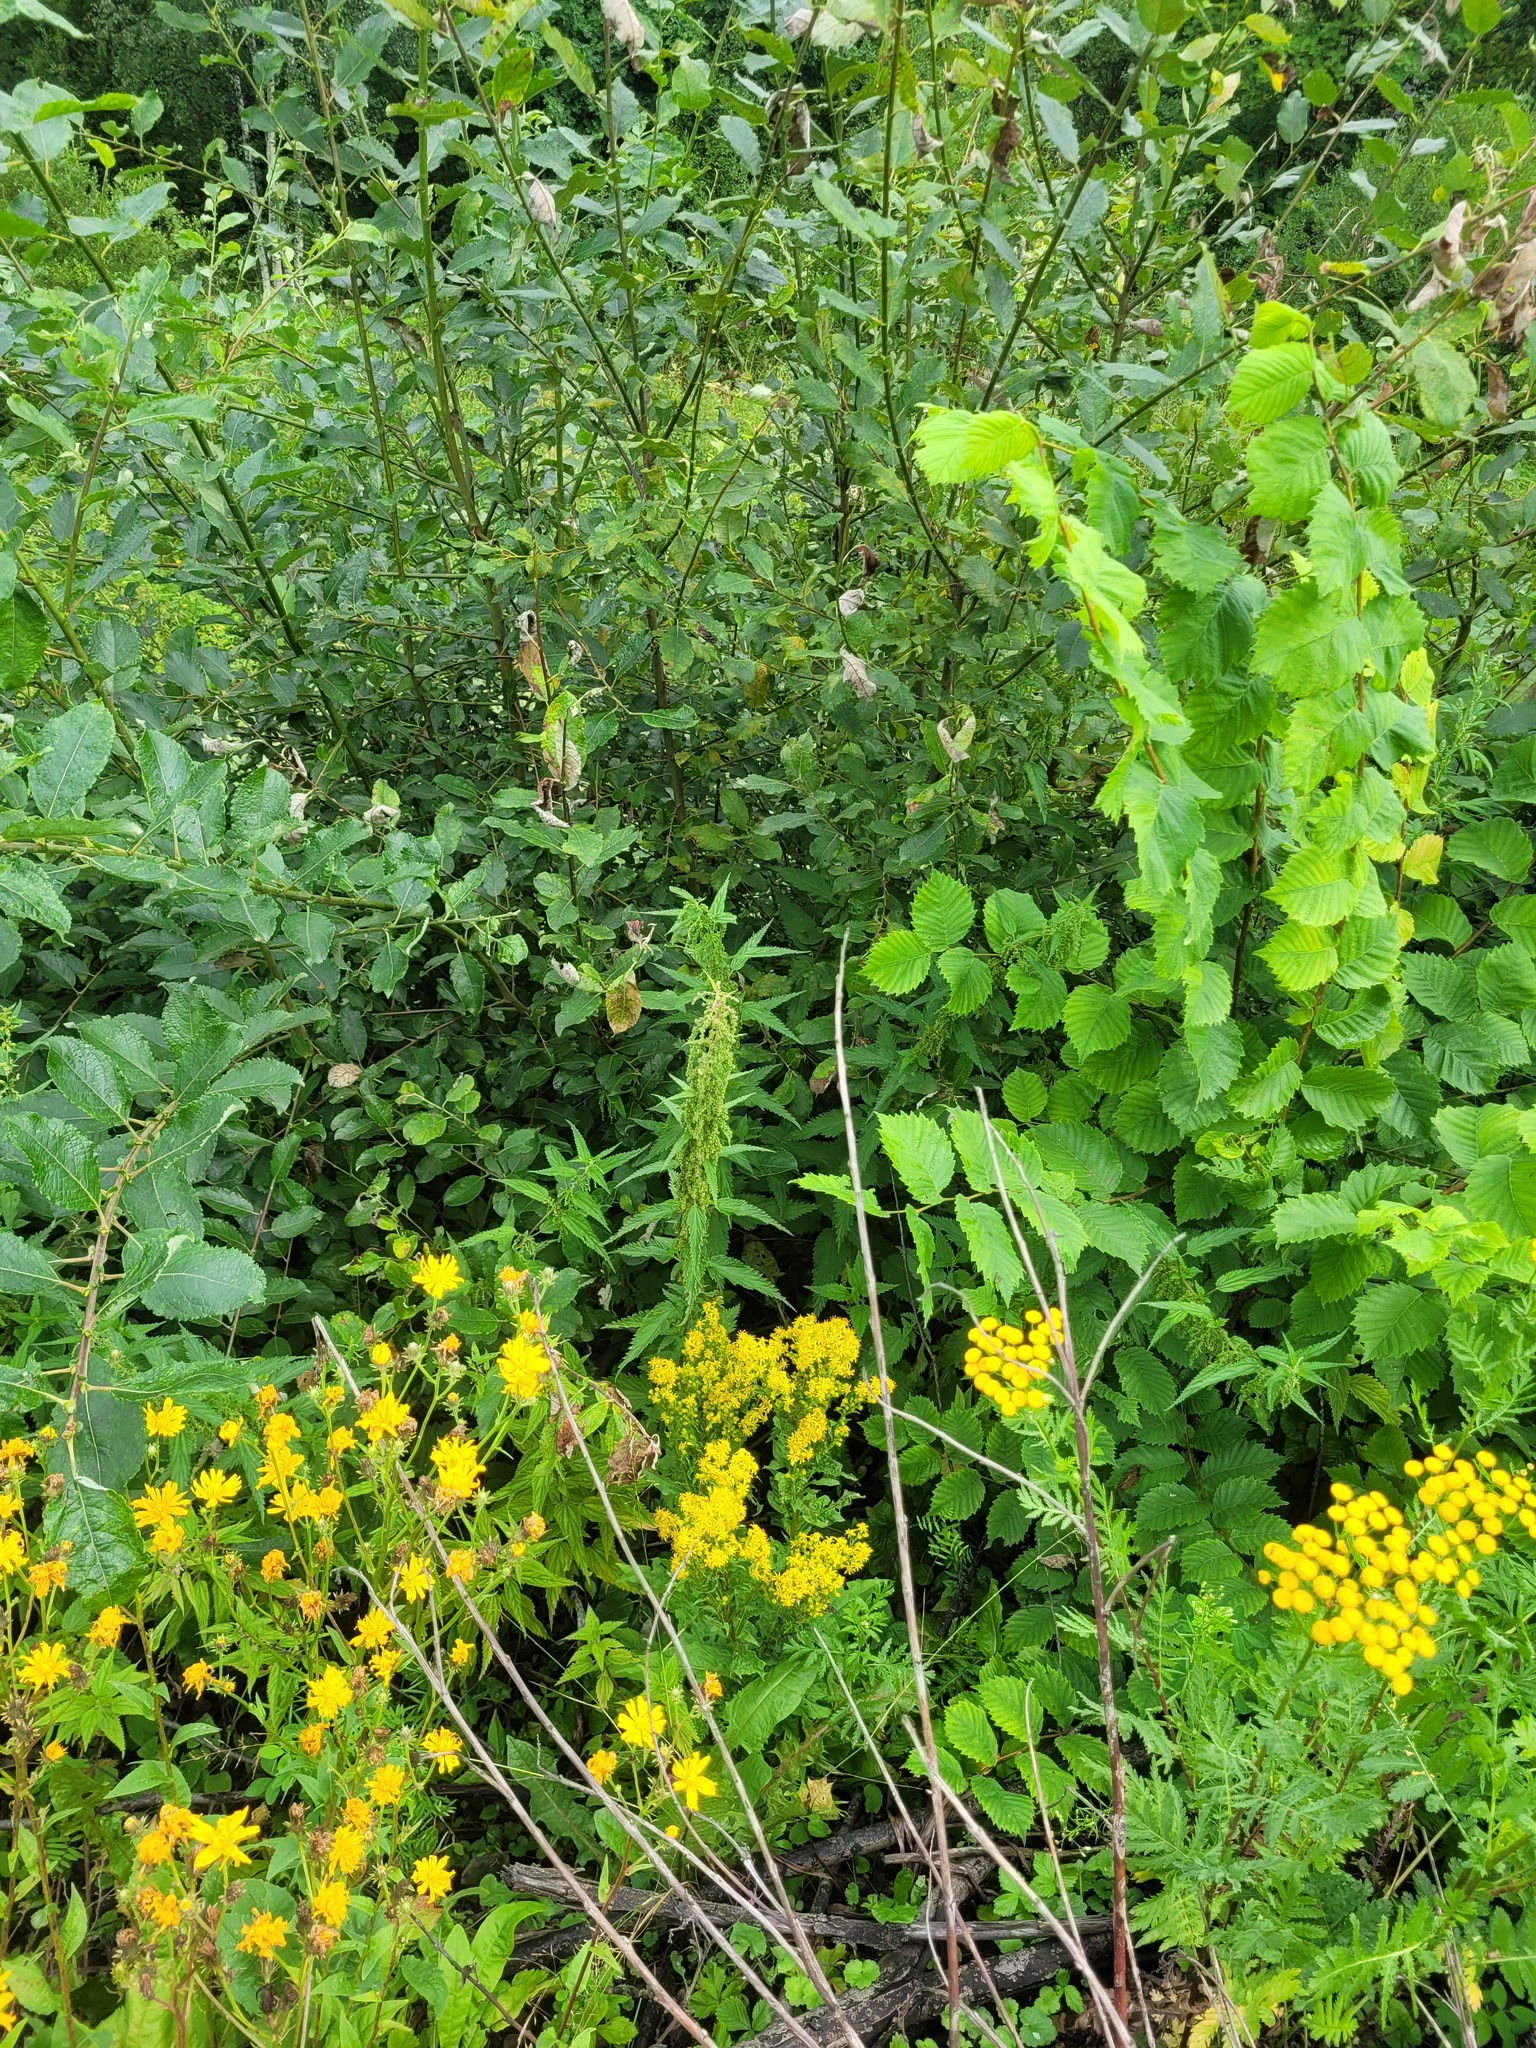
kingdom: Plantae
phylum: Tracheophyta
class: Magnoliopsida
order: Asterales
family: Asteraceae
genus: Solidago
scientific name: Solidago virgaurea
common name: Goldenrod
